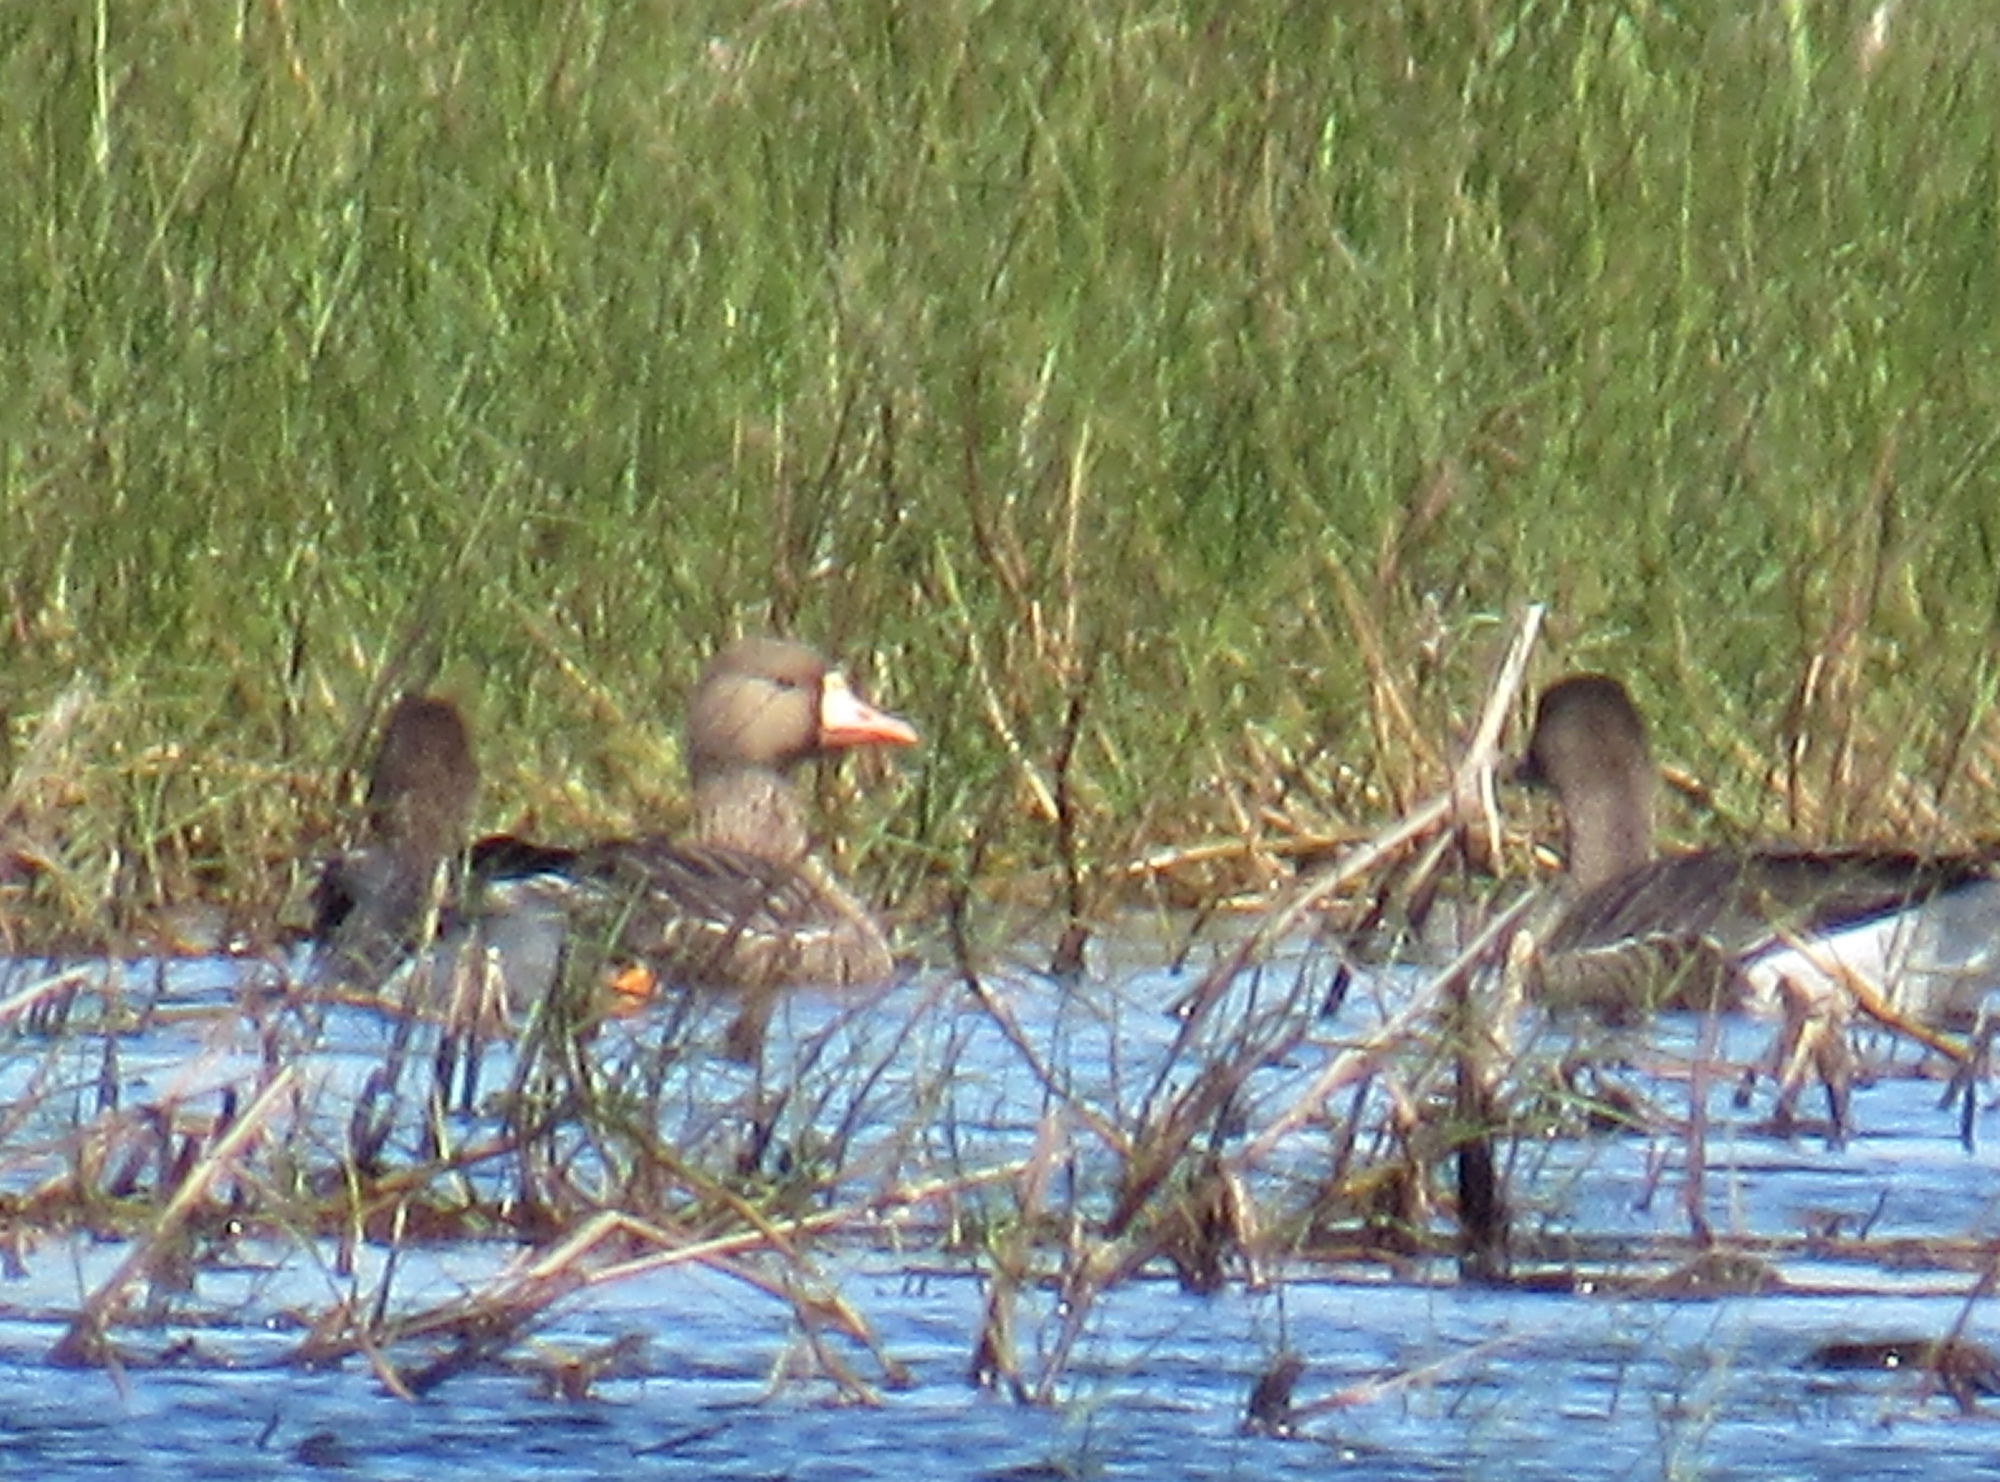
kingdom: Animalia
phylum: Chordata
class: Aves
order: Anseriformes
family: Anatidae
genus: Anser
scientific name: Anser albifrons
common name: Greater white-fronted goose
